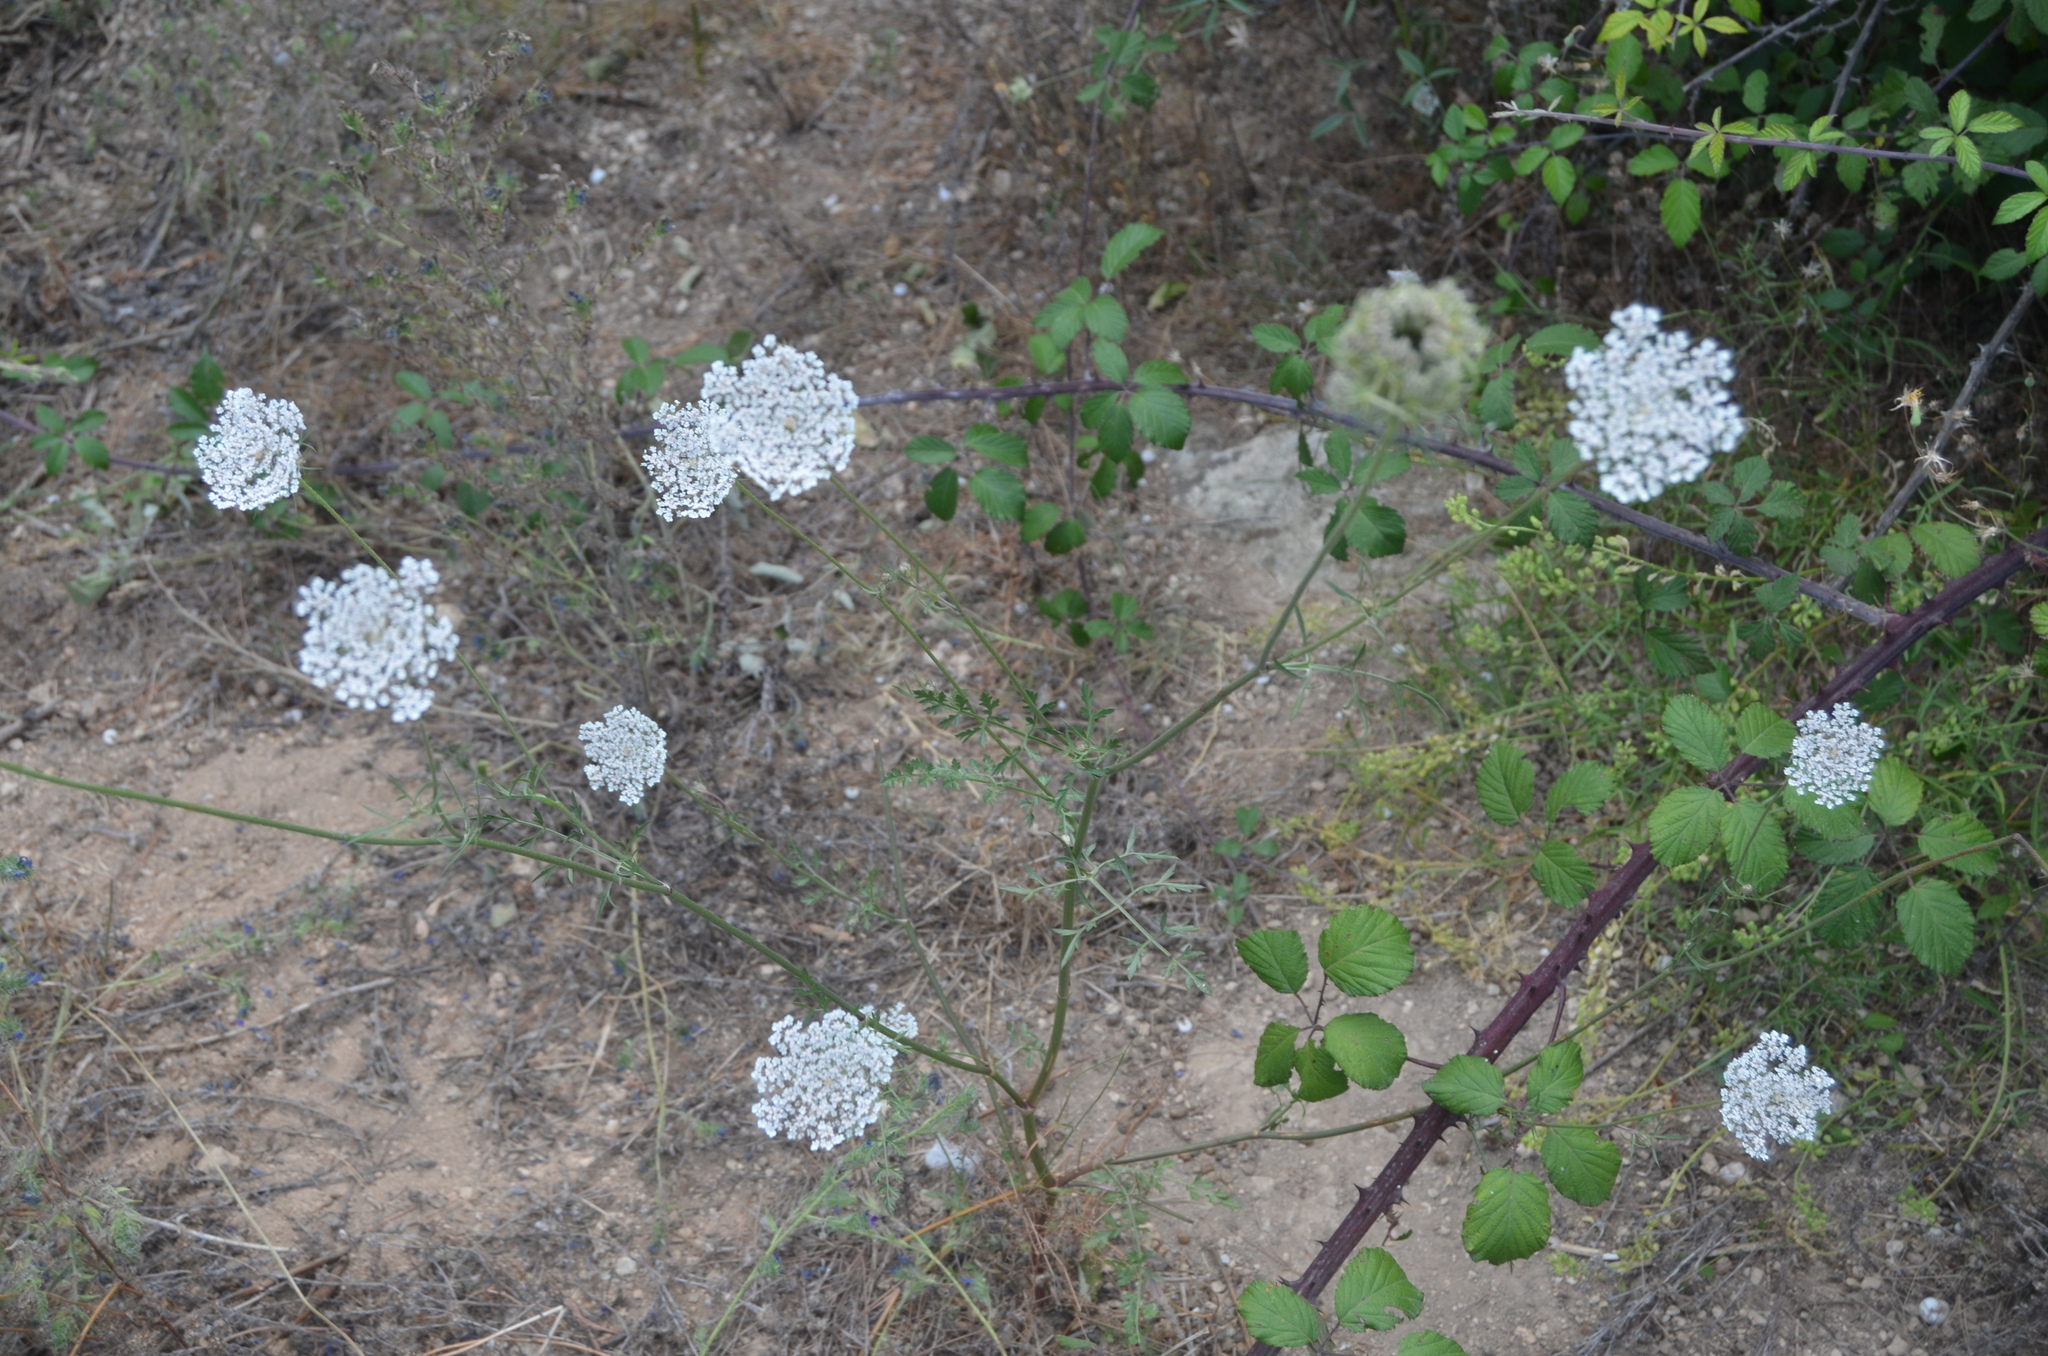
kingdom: Plantae
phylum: Tracheophyta
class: Magnoliopsida
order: Apiales
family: Apiaceae
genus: Daucus
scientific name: Daucus carota
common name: Wild carrot
